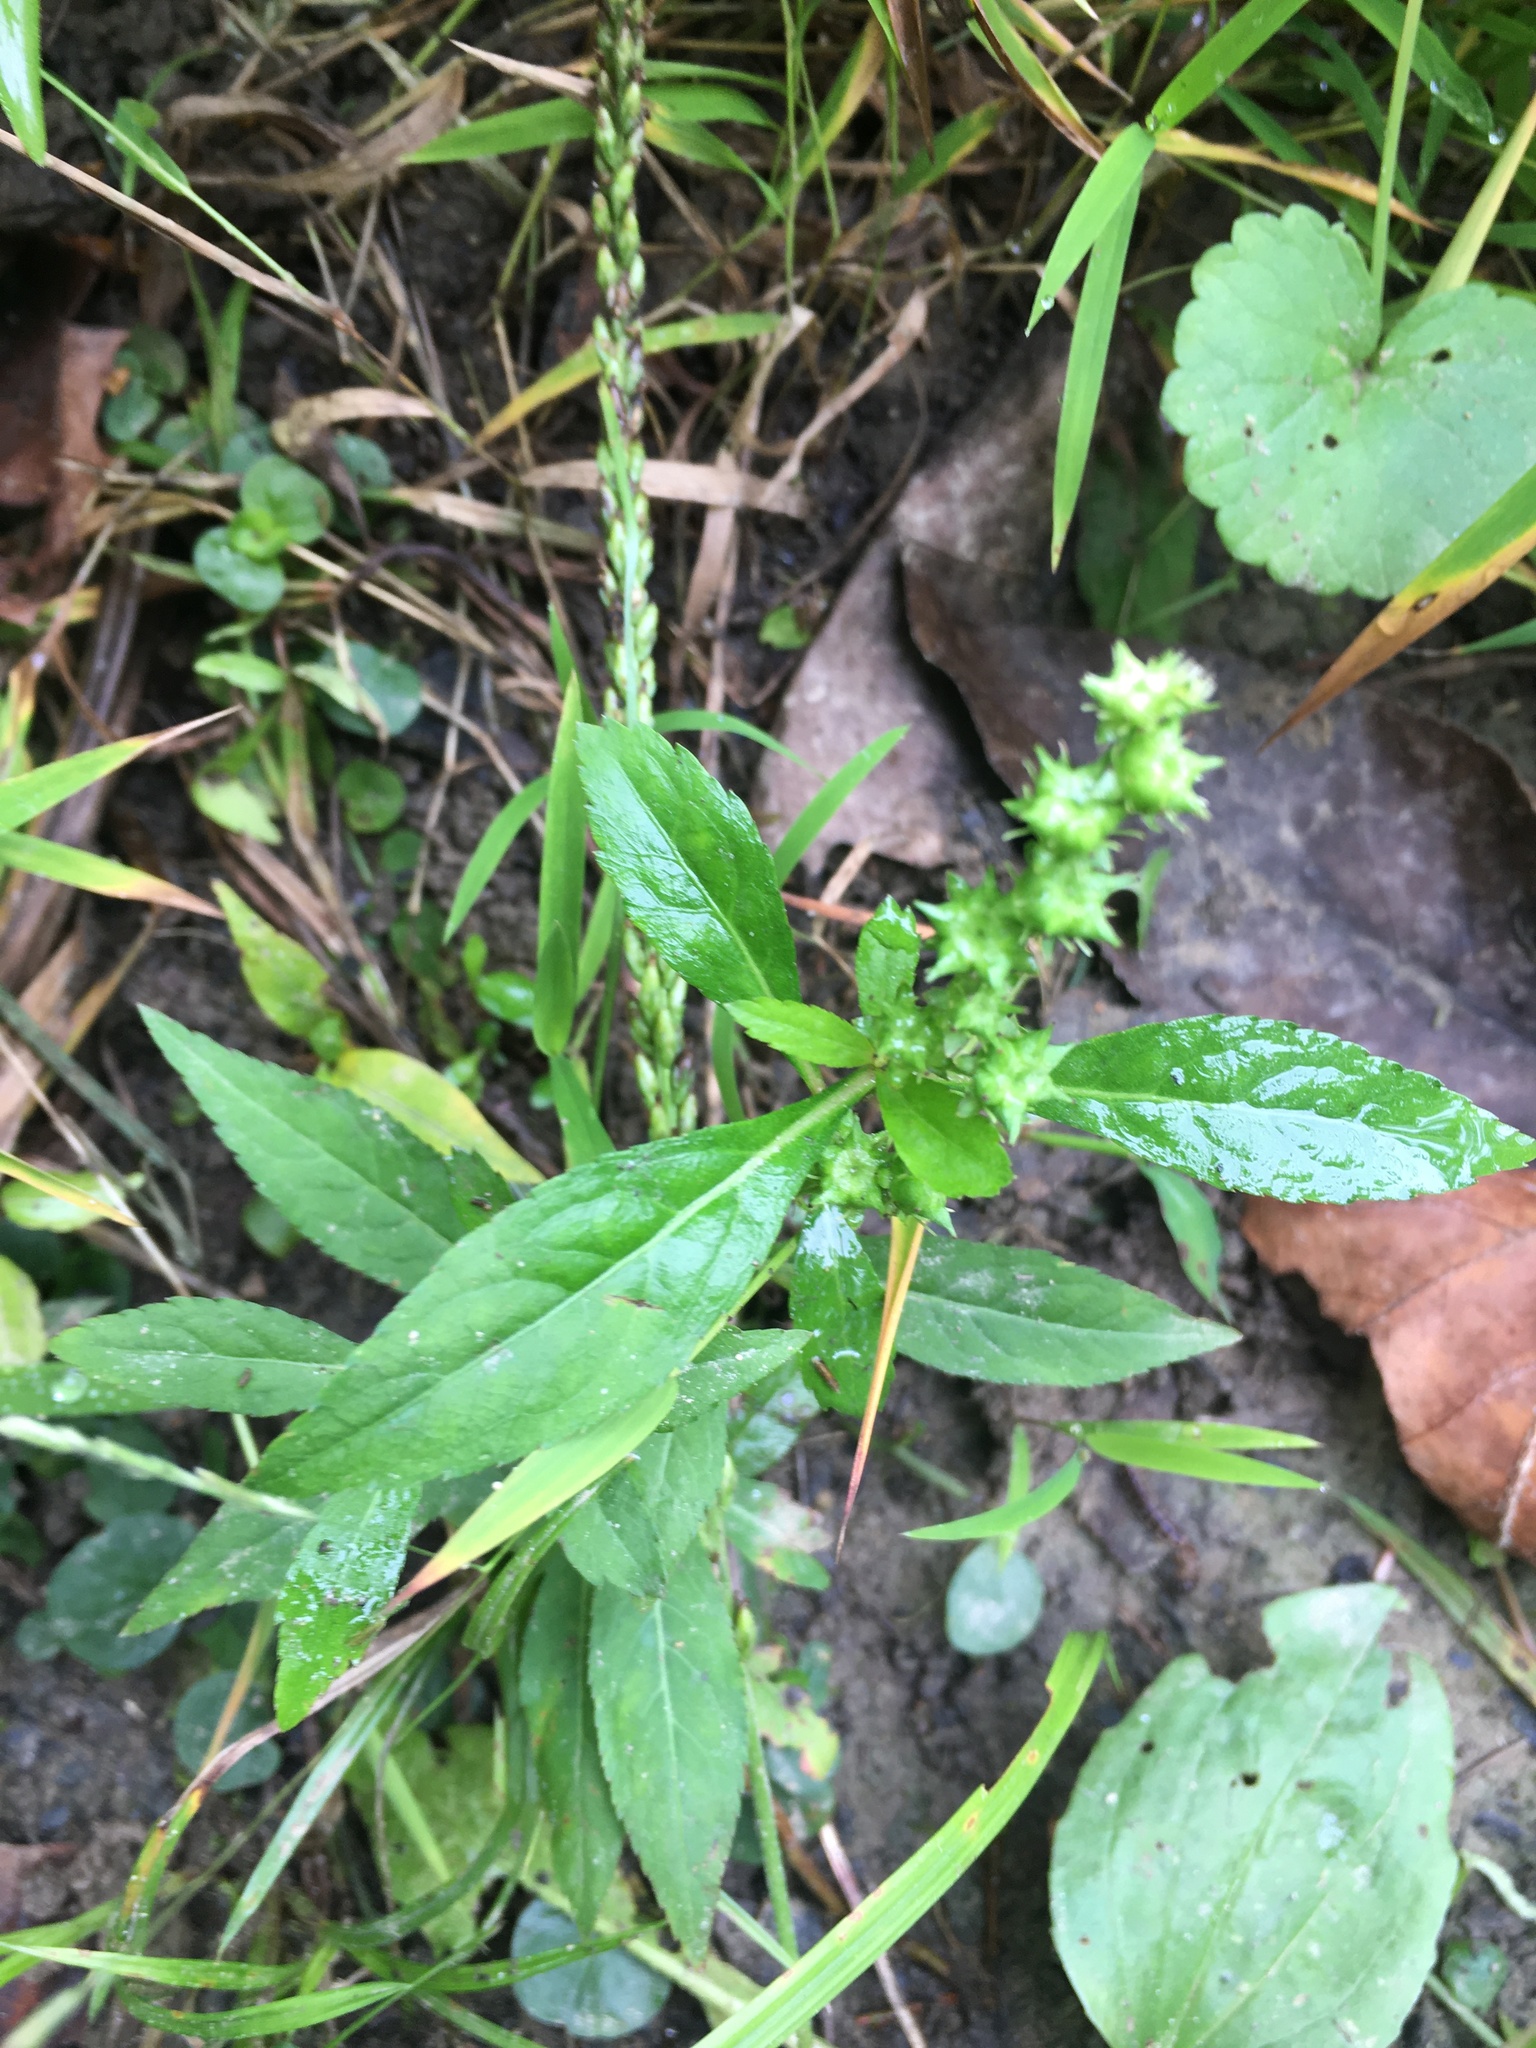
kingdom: Plantae
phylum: Tracheophyta
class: Magnoliopsida
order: Saxifragales
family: Penthoraceae
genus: Penthorum
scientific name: Penthorum sedoides
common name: Ditch stonecrop
